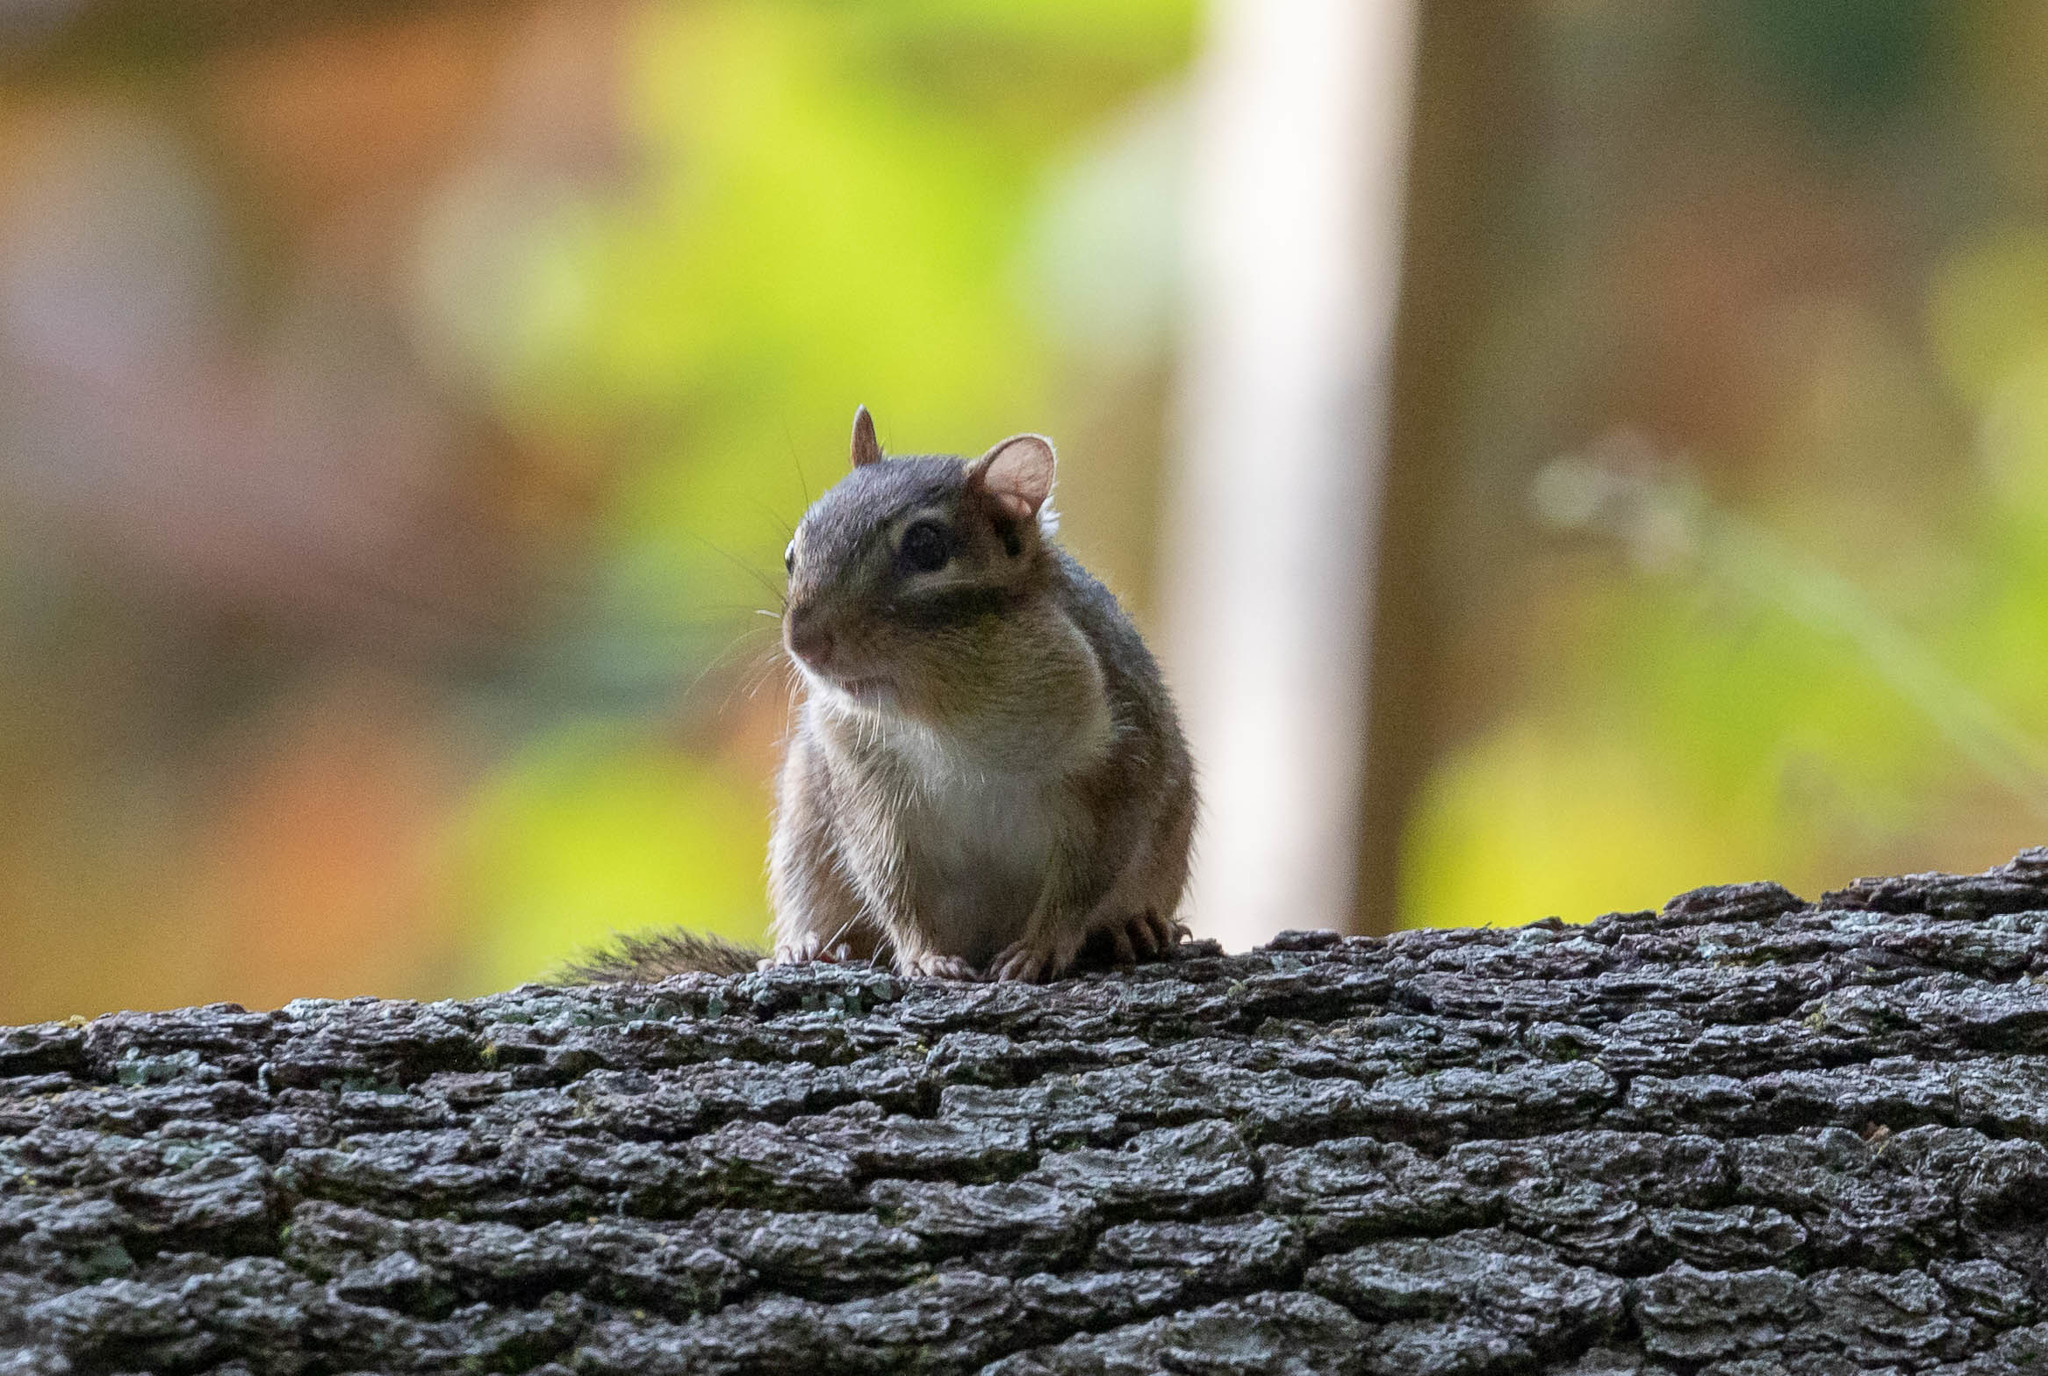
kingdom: Animalia
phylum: Chordata
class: Mammalia
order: Rodentia
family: Sciuridae
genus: Tamias
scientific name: Tamias striatus
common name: Eastern chipmunk
